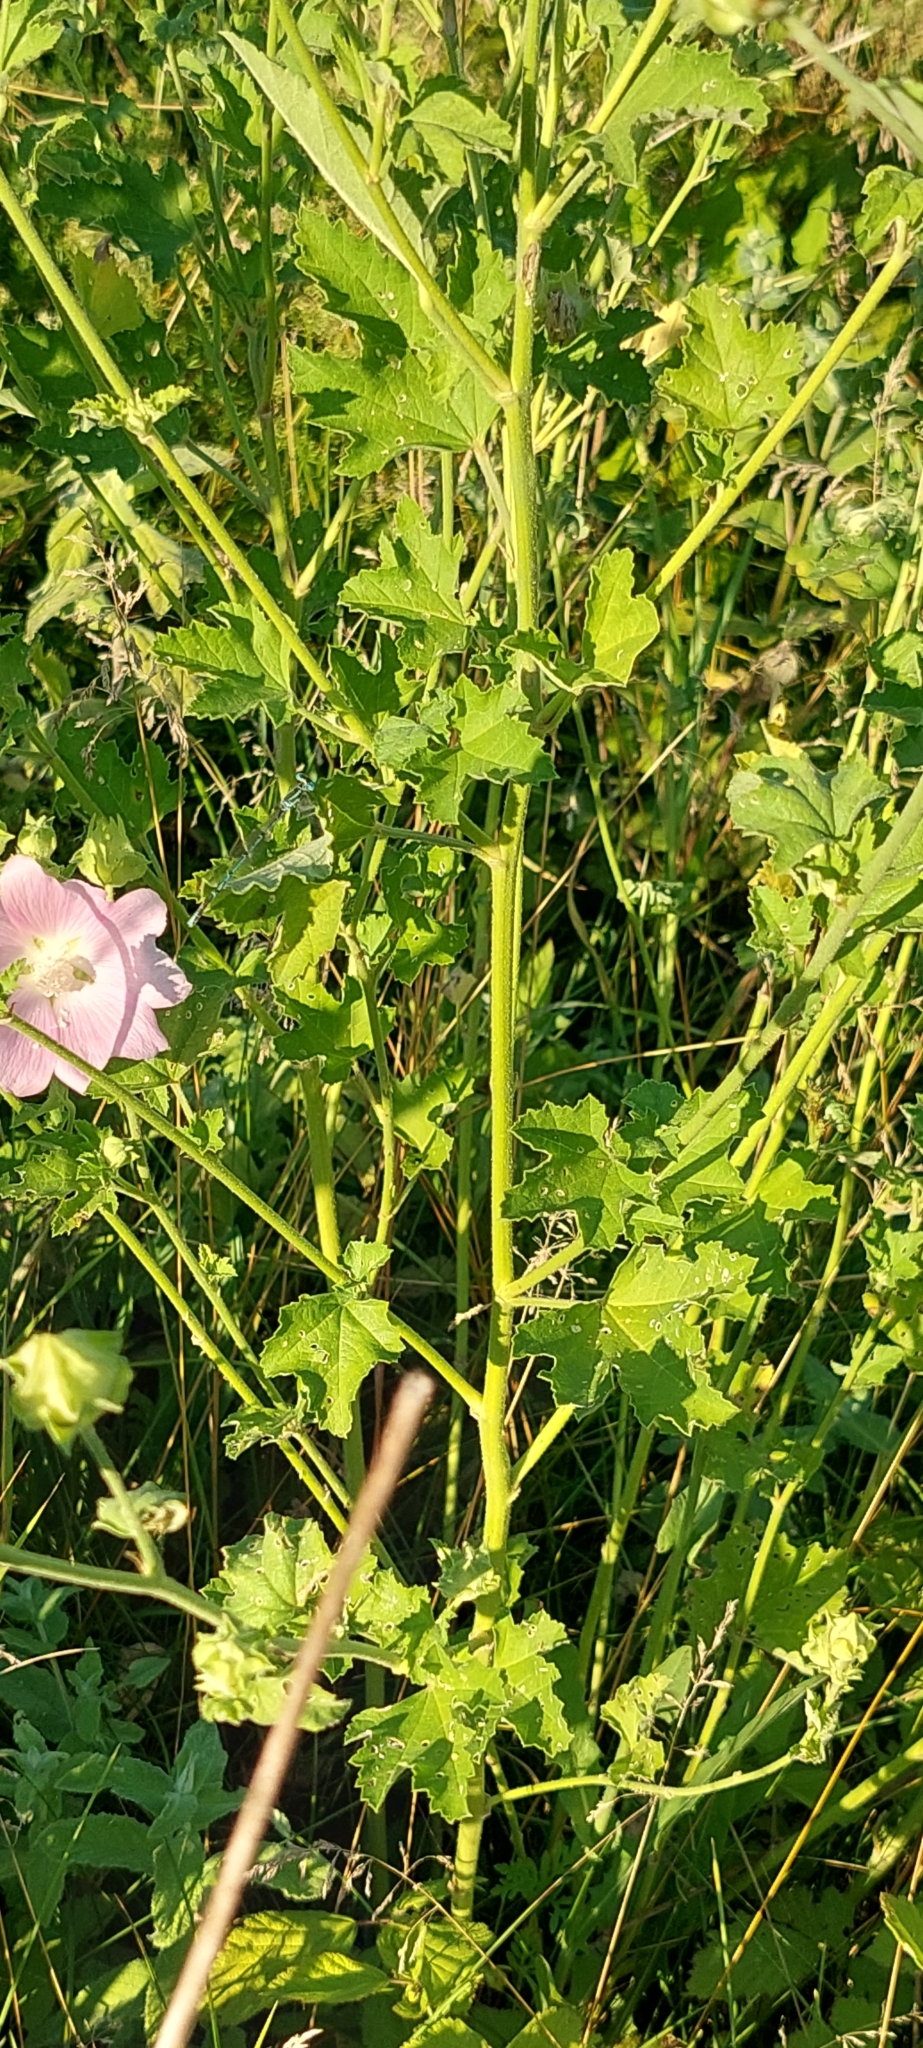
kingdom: Plantae
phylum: Tracheophyta
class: Magnoliopsida
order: Malvales
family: Malvaceae
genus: Malva
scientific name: Malva thuringiaca
